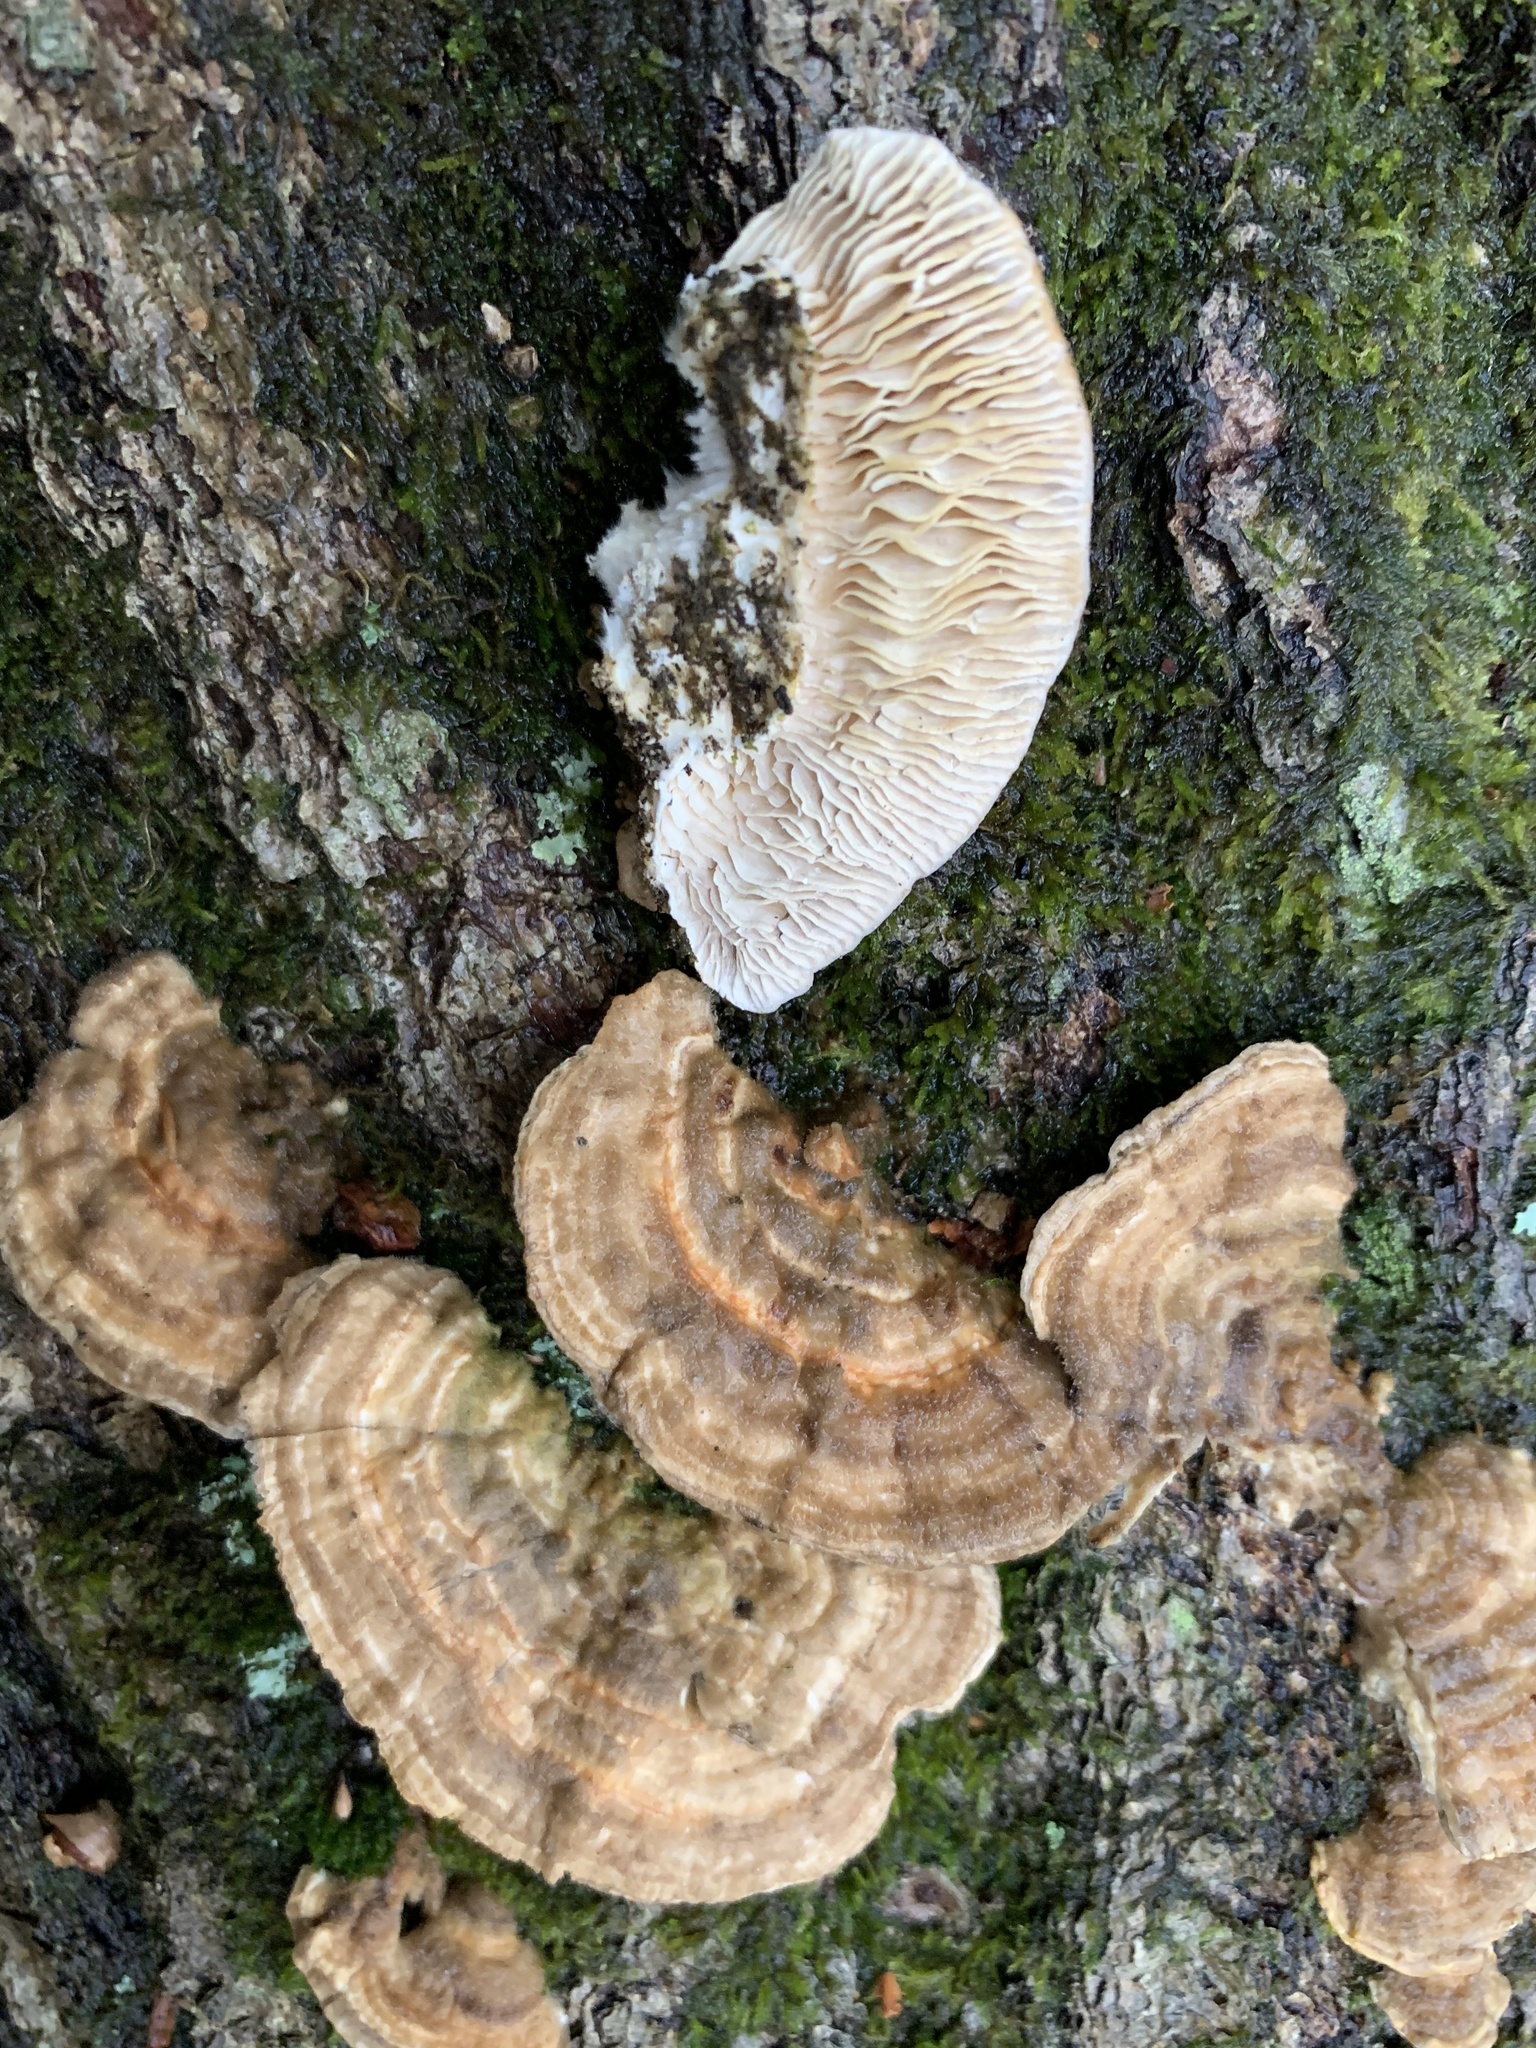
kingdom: Fungi
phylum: Basidiomycota
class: Agaricomycetes
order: Polyporales
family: Polyporaceae
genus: Lenzites
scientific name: Lenzites betulinus
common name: Birch mazegill
